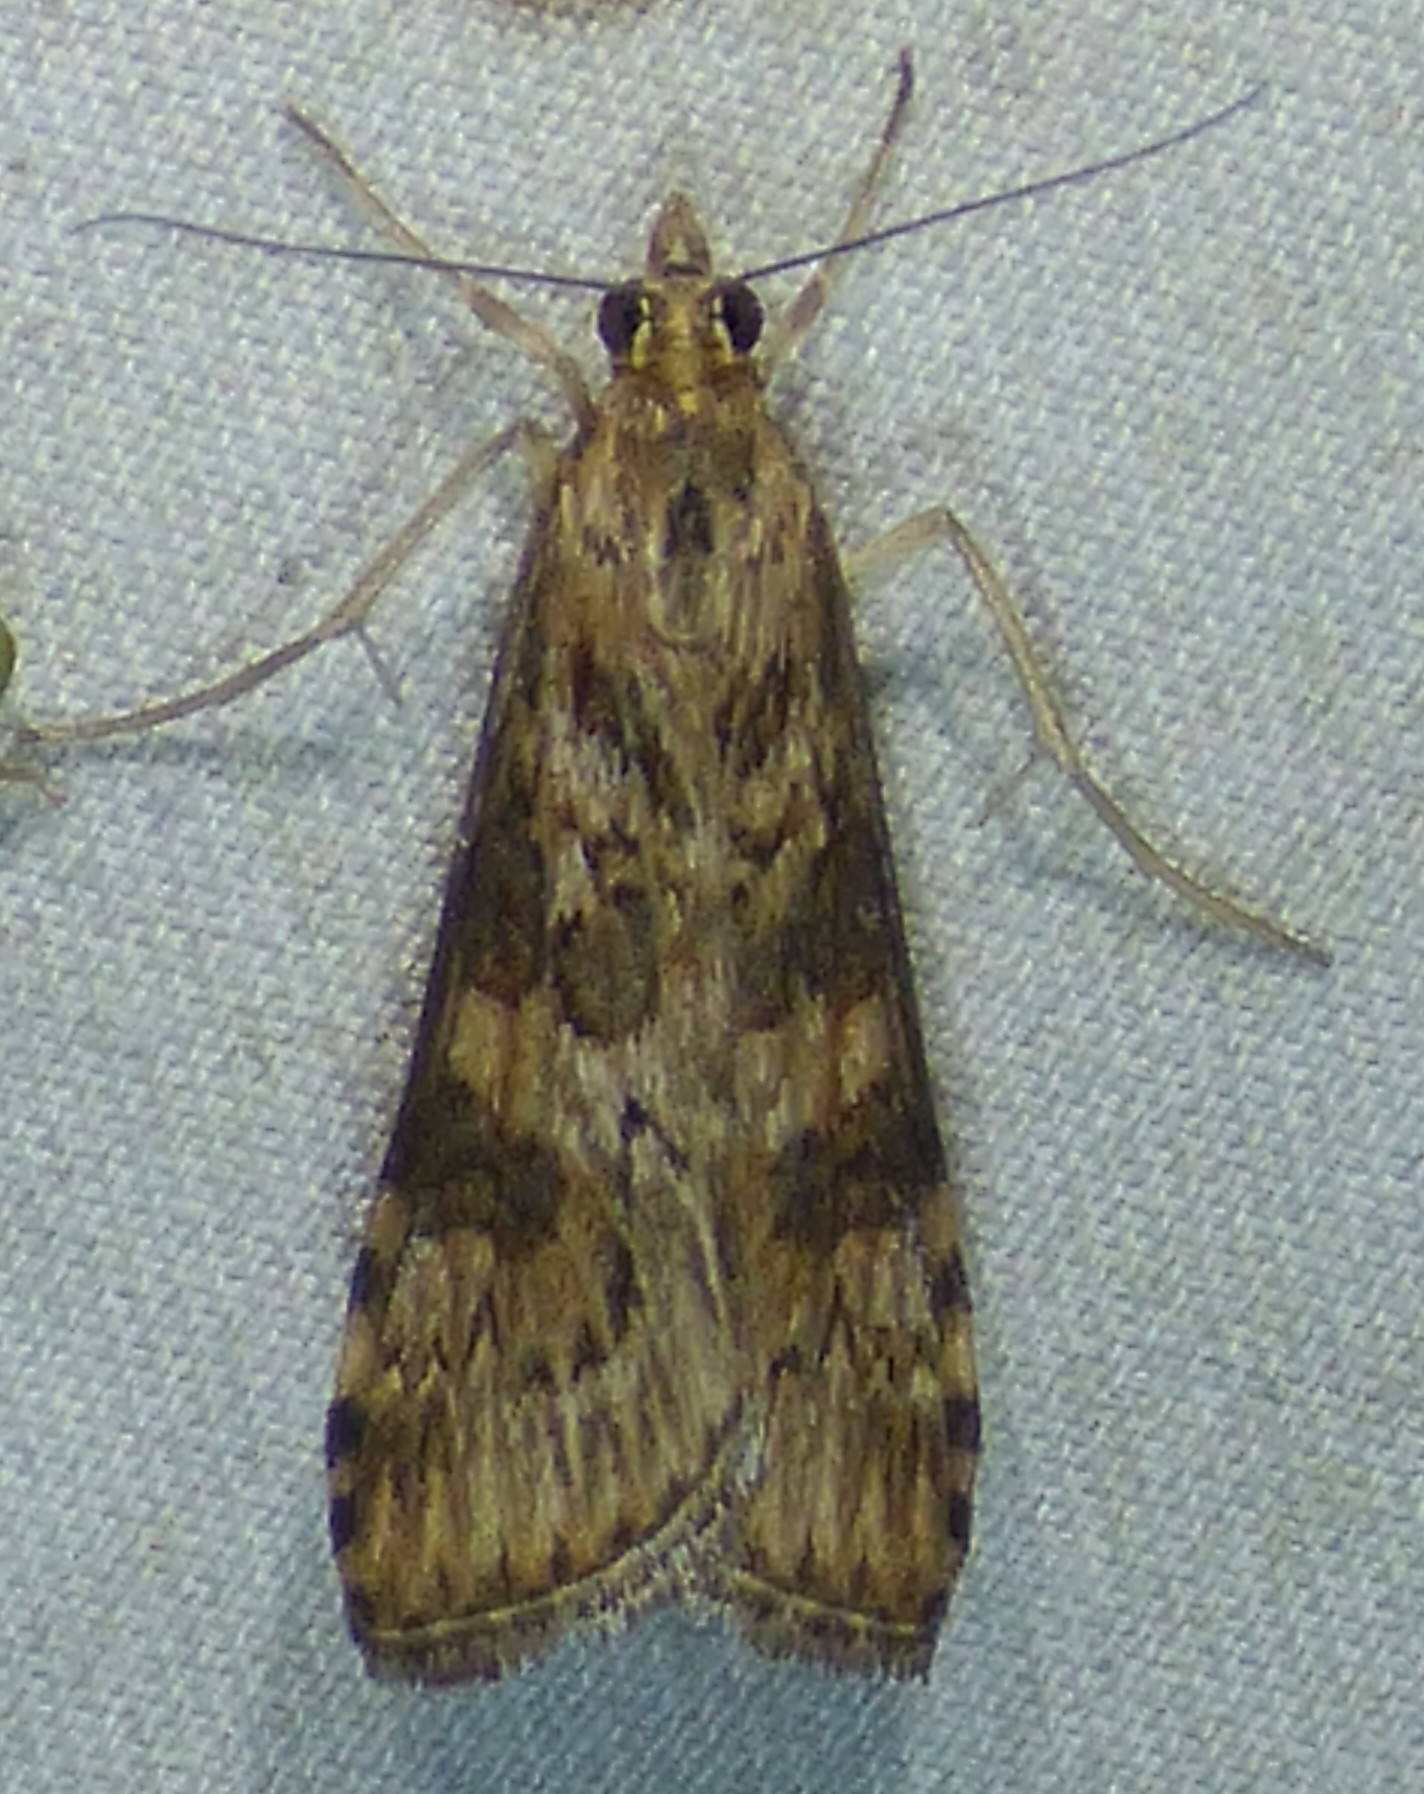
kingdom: Animalia
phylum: Arthropoda
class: Insecta
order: Lepidoptera
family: Crambidae
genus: Nomophila
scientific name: Nomophila nearctica
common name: American rush veneer
